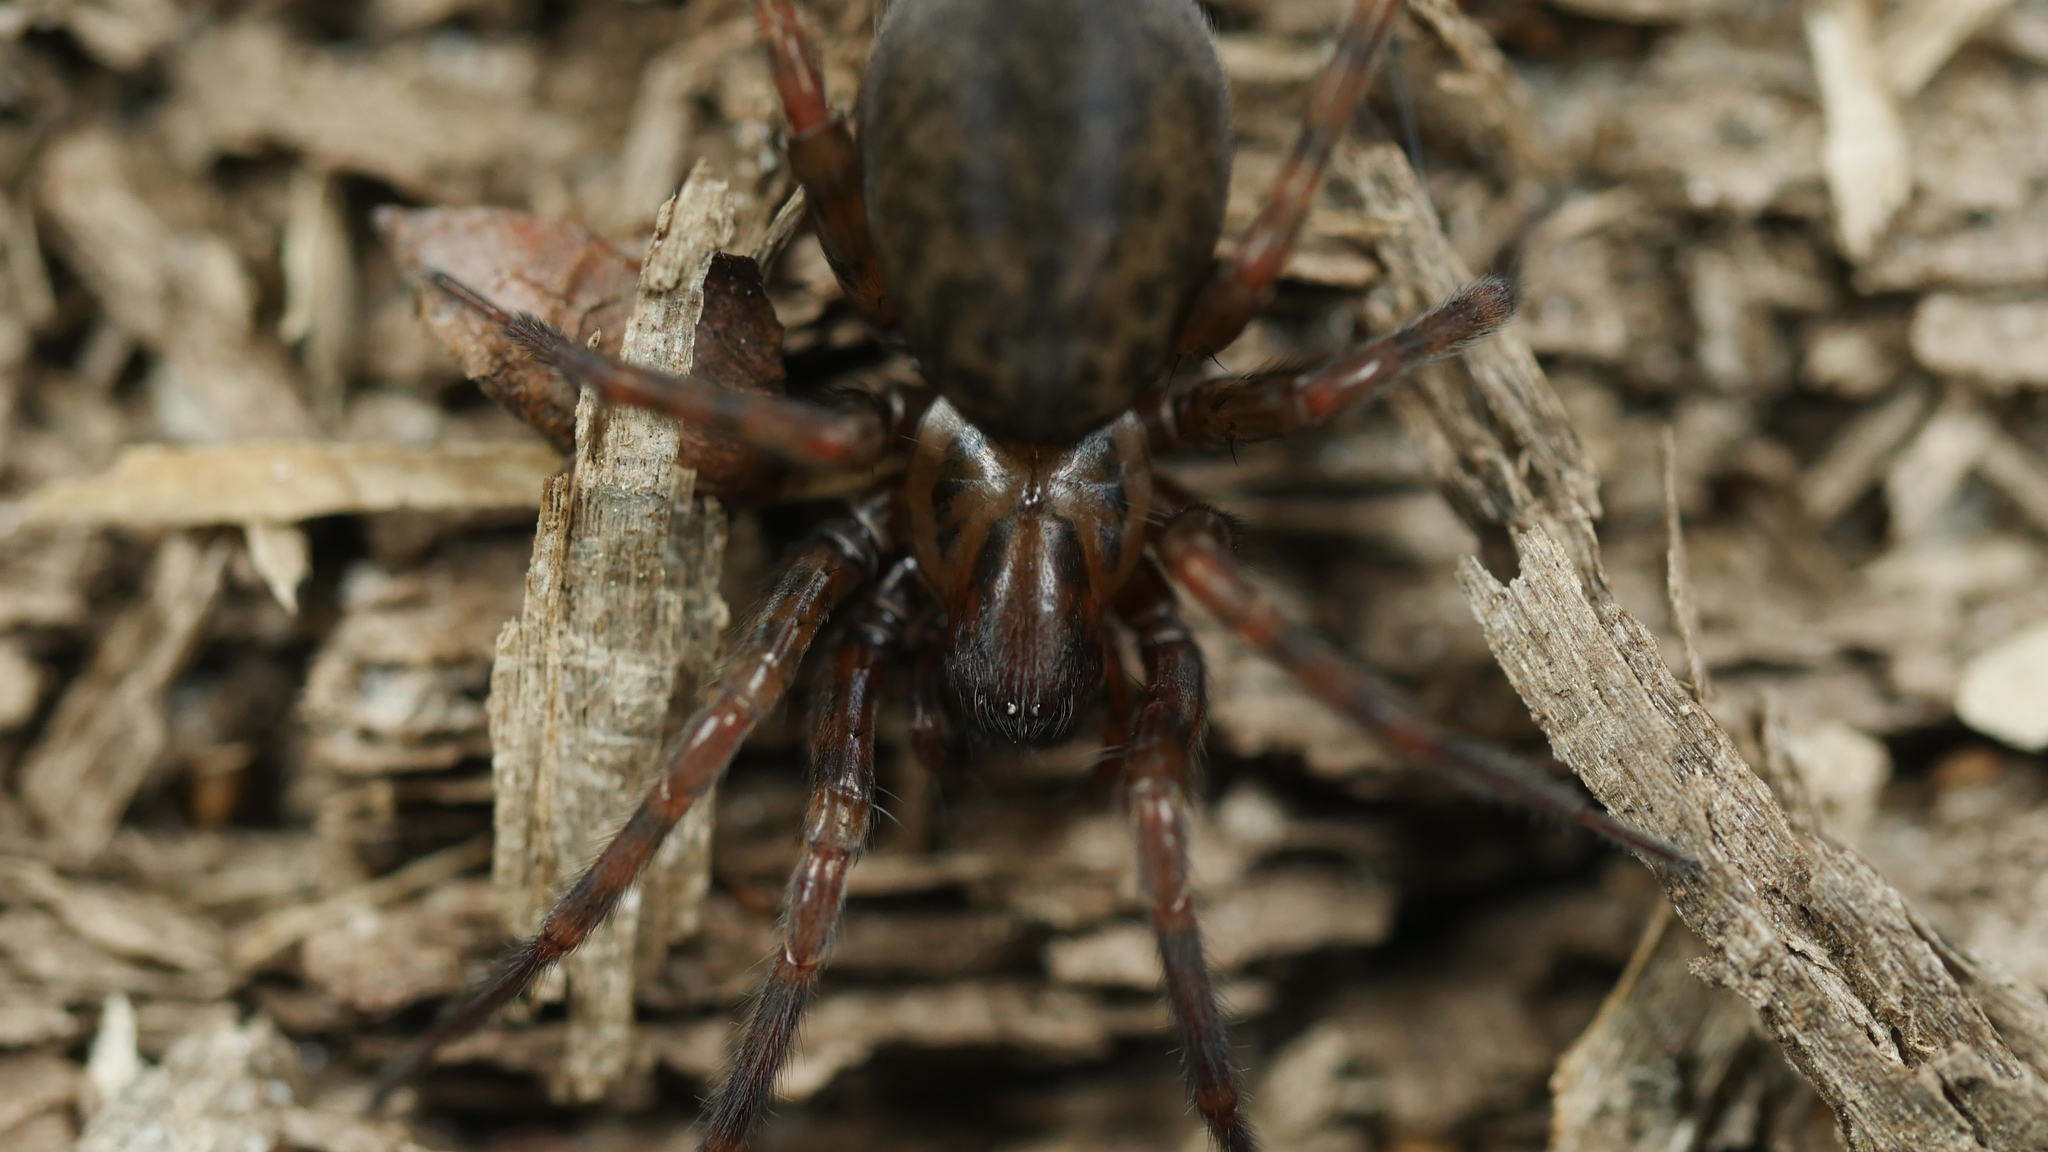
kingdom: Animalia
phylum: Arthropoda
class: Arachnida
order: Araneae
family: Agelenidae
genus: Coras
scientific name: Coras
